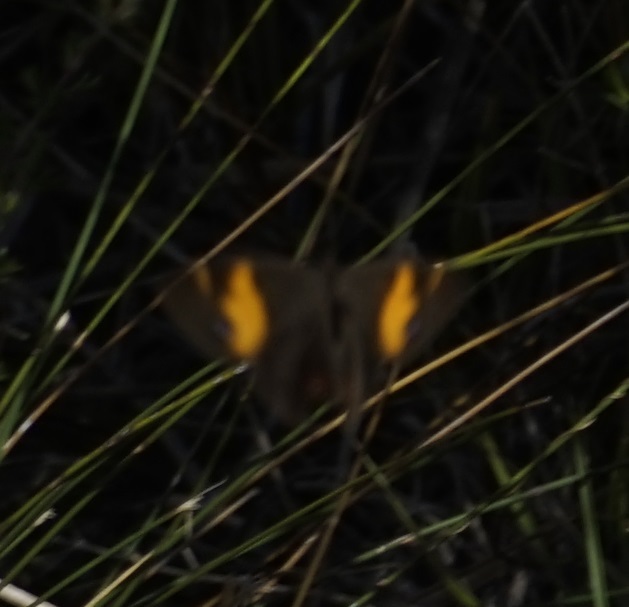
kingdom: Animalia
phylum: Arthropoda
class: Insecta
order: Lepidoptera
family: Nymphalidae
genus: Tisiphone
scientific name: Tisiphone abeona
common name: Swordgrass brown
